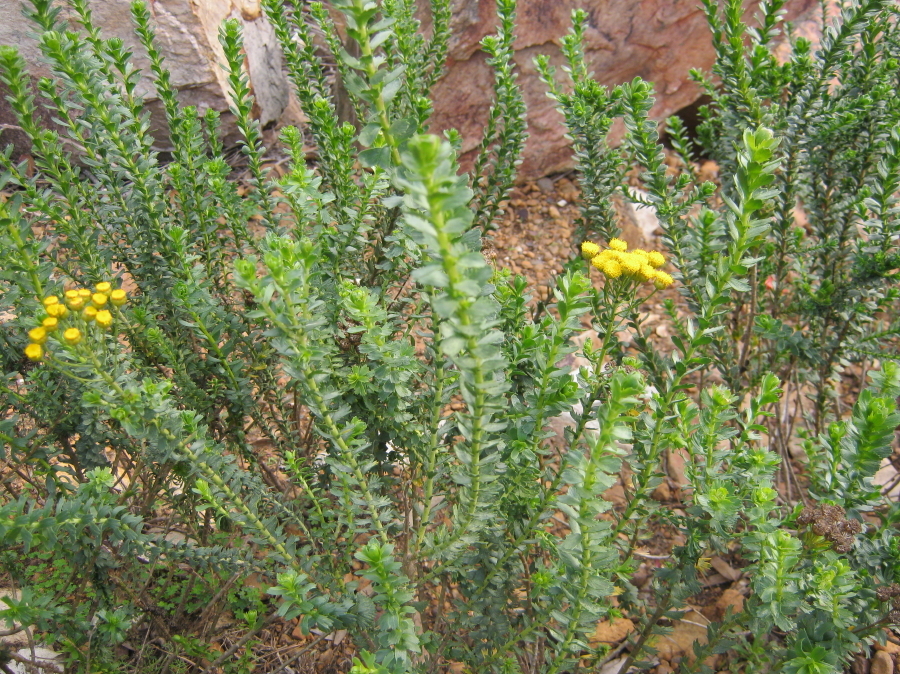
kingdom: Plantae
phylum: Tracheophyta
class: Magnoliopsida
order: Asterales
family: Asteraceae
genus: Athanasia
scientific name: Athanasia trifurcata
